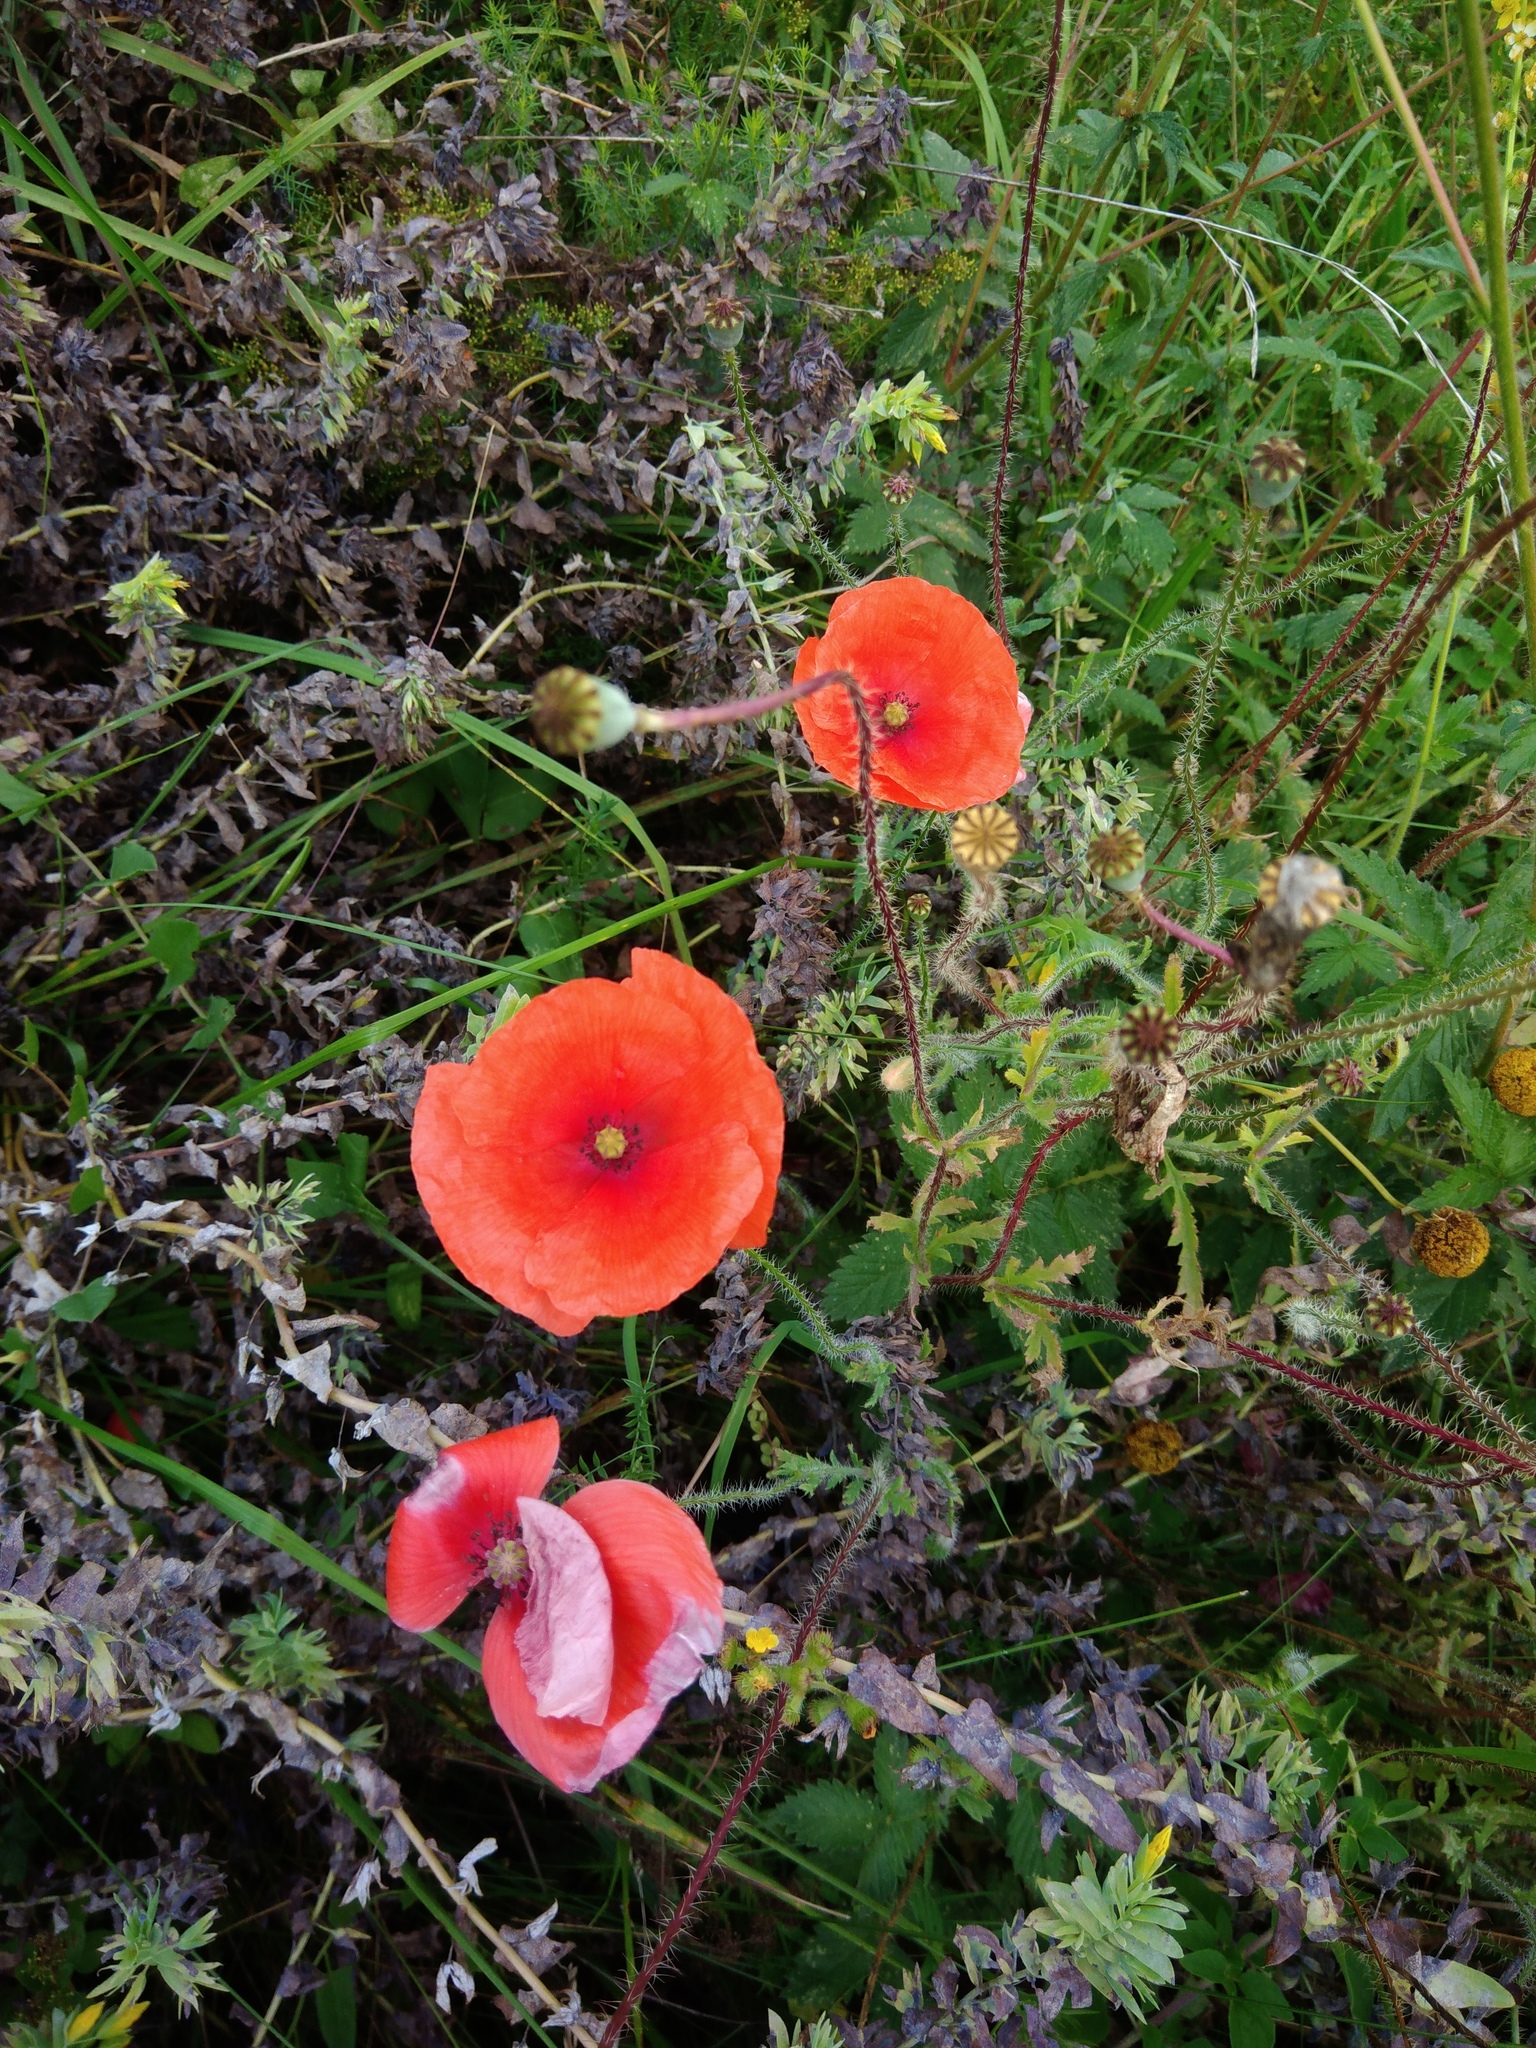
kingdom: Plantae
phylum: Tracheophyta
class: Magnoliopsida
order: Ranunculales
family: Papaveraceae
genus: Papaver
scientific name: Papaver rhoeas
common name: Corn poppy
